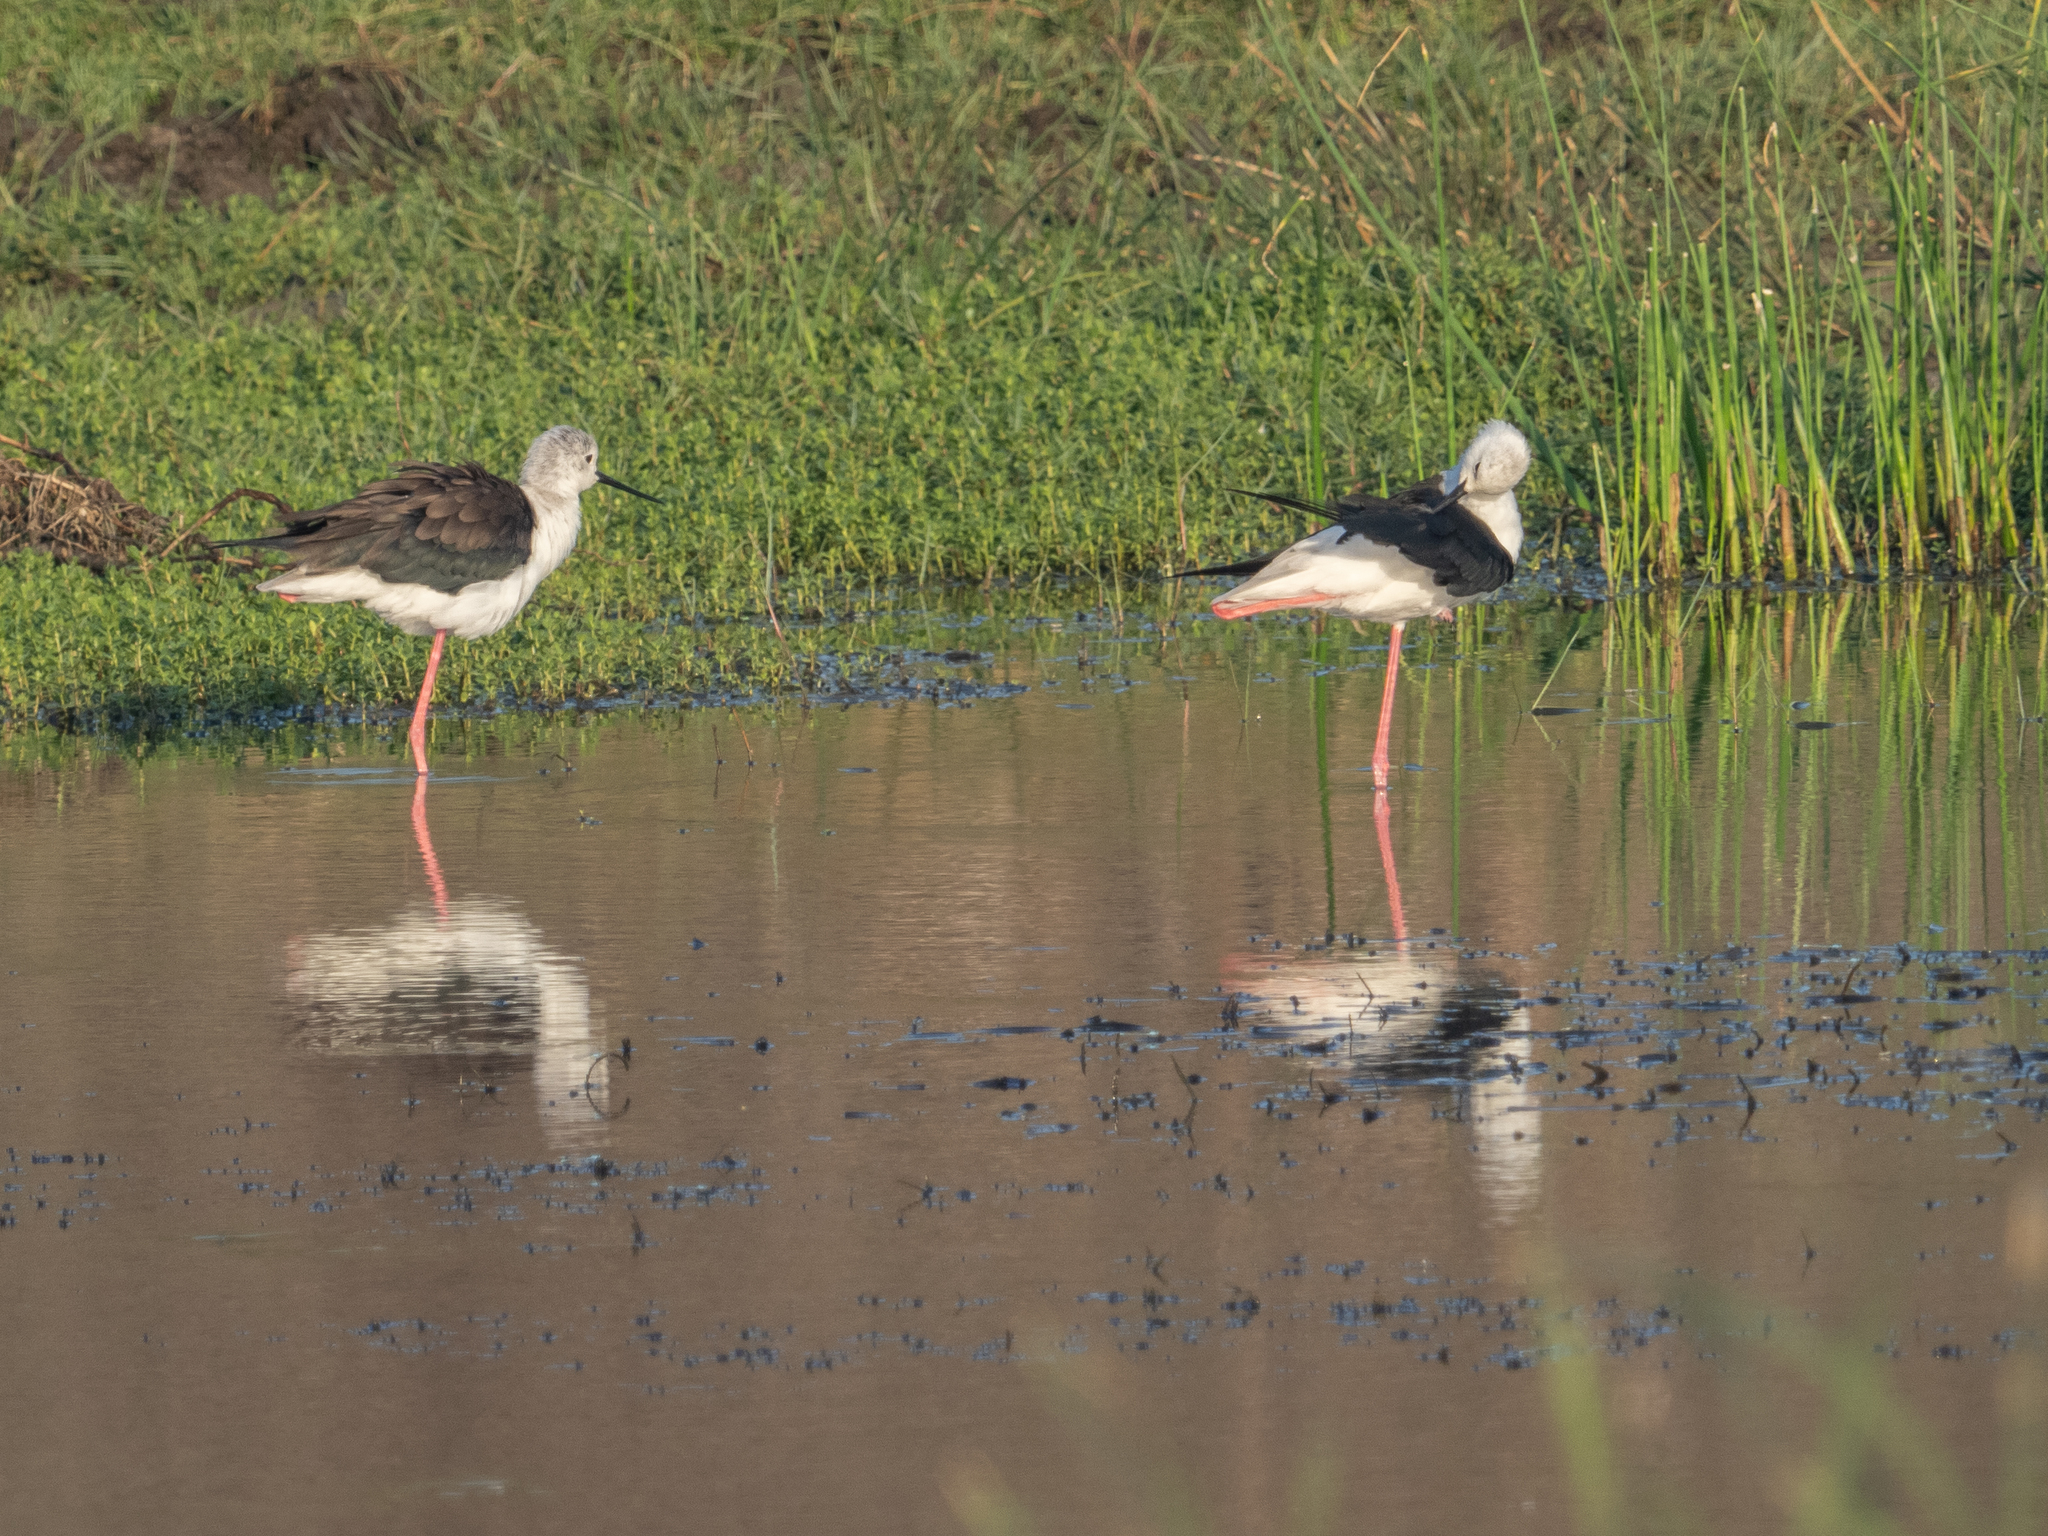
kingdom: Animalia
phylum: Chordata
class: Aves
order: Charadriiformes
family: Recurvirostridae
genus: Himantopus
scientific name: Himantopus himantopus
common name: Black-winged stilt
